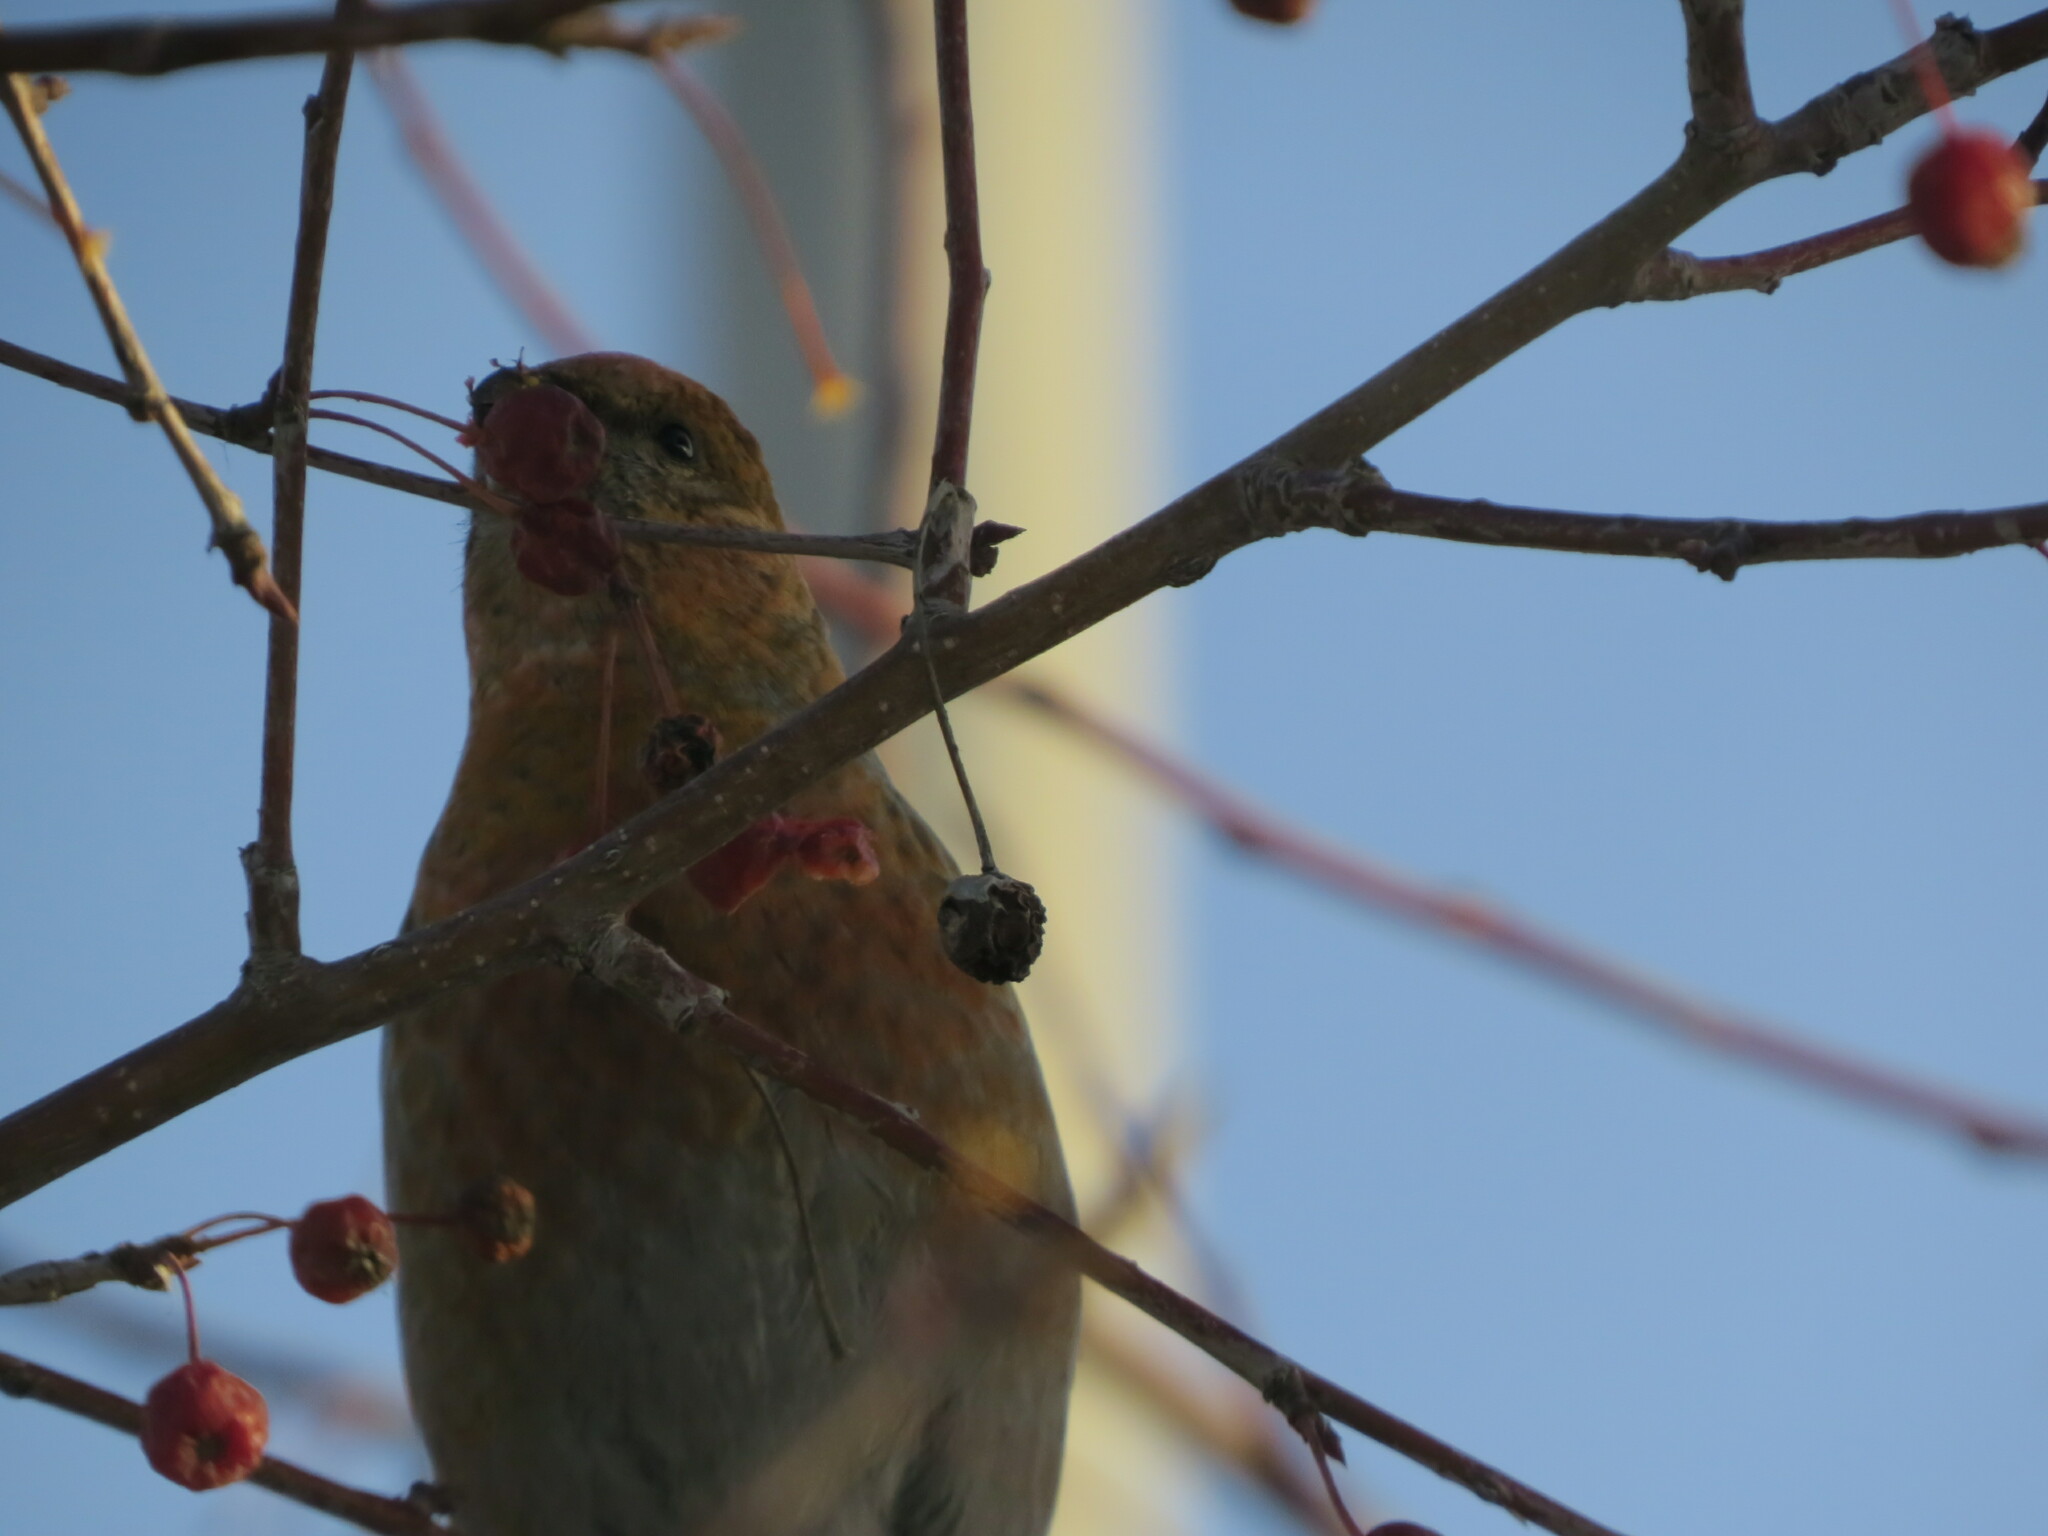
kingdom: Animalia
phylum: Chordata
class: Aves
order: Passeriformes
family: Fringillidae
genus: Pinicola
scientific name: Pinicola enucleator
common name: Pine grosbeak
